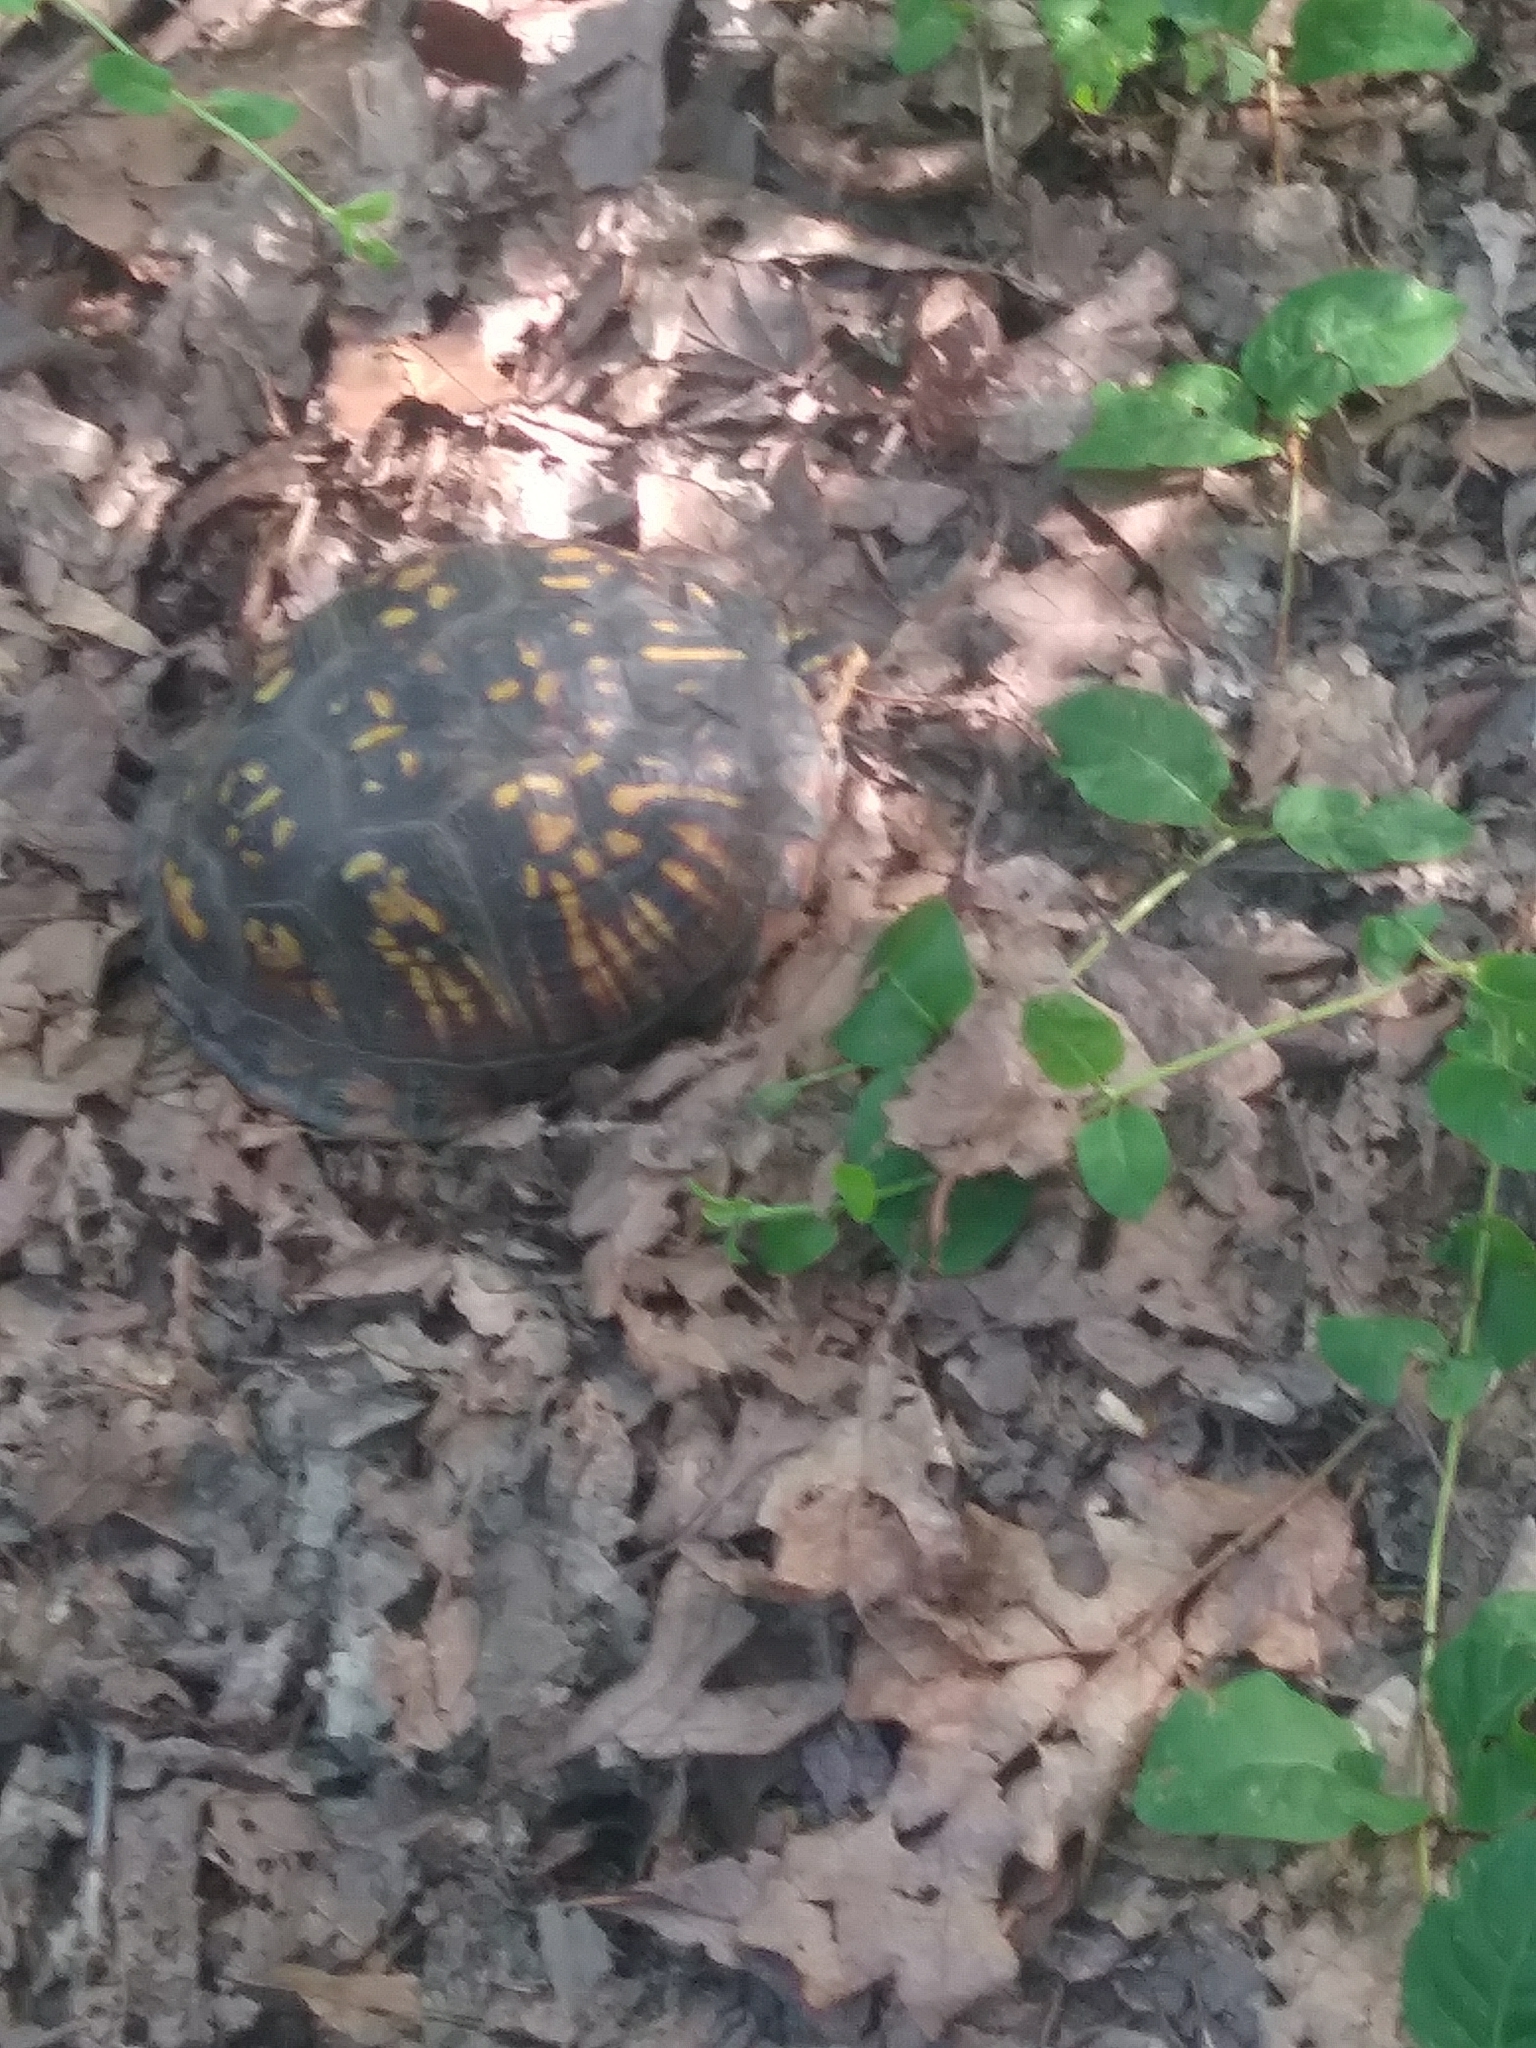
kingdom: Animalia
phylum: Chordata
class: Testudines
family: Emydidae
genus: Terrapene
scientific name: Terrapene carolina
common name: Common box turtle
